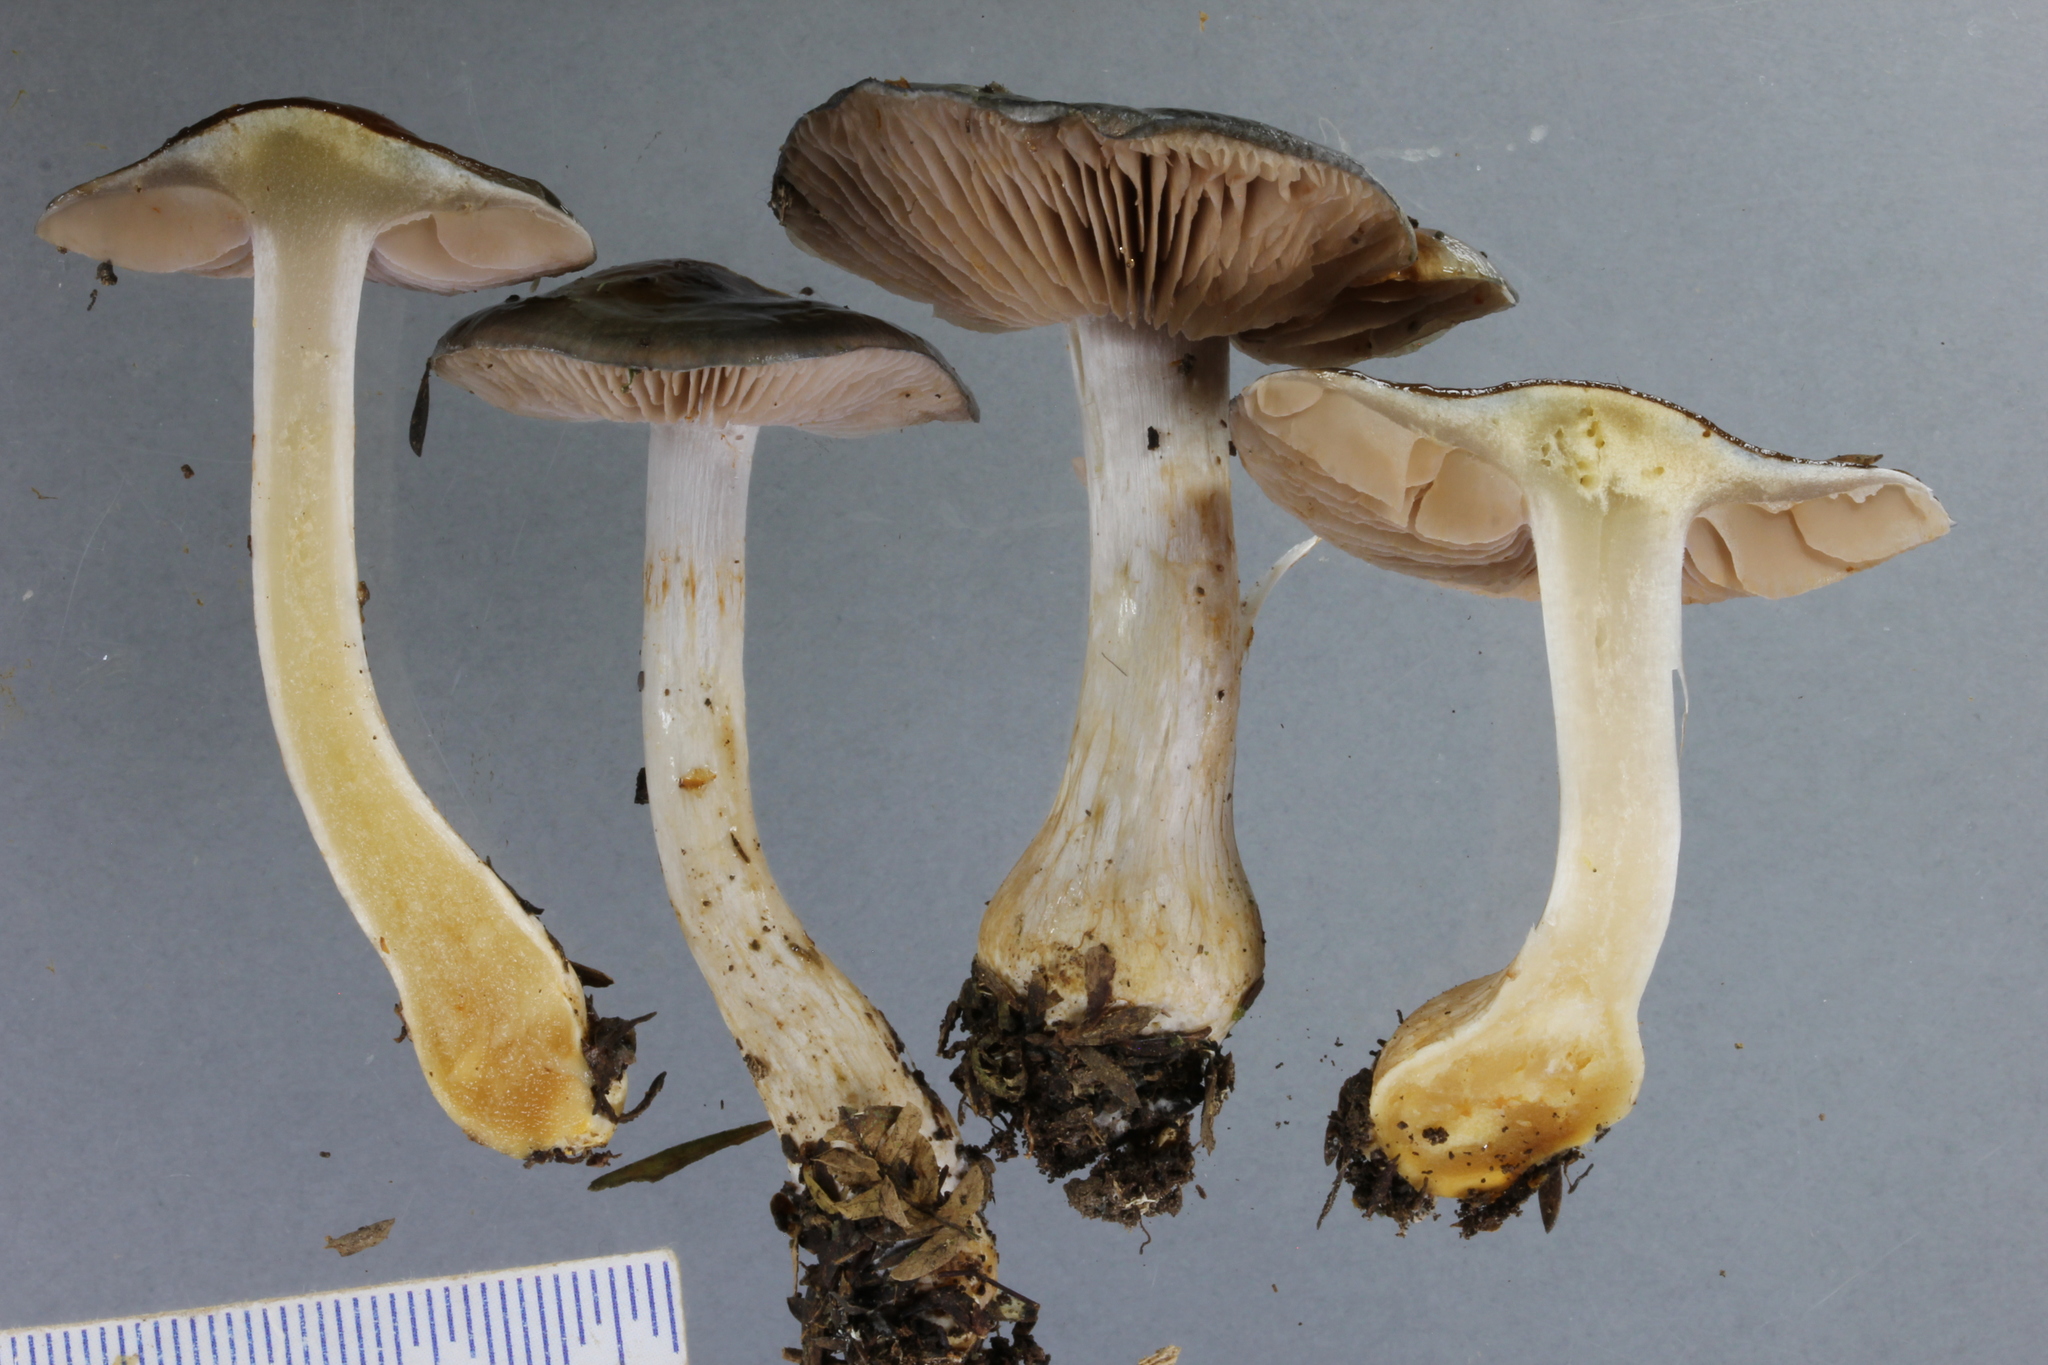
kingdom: Fungi
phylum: Basidiomycota
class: Agaricomycetes
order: Agaricales
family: Cortinariaceae
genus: Cortinarius
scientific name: Cortinarius rotundisporus
